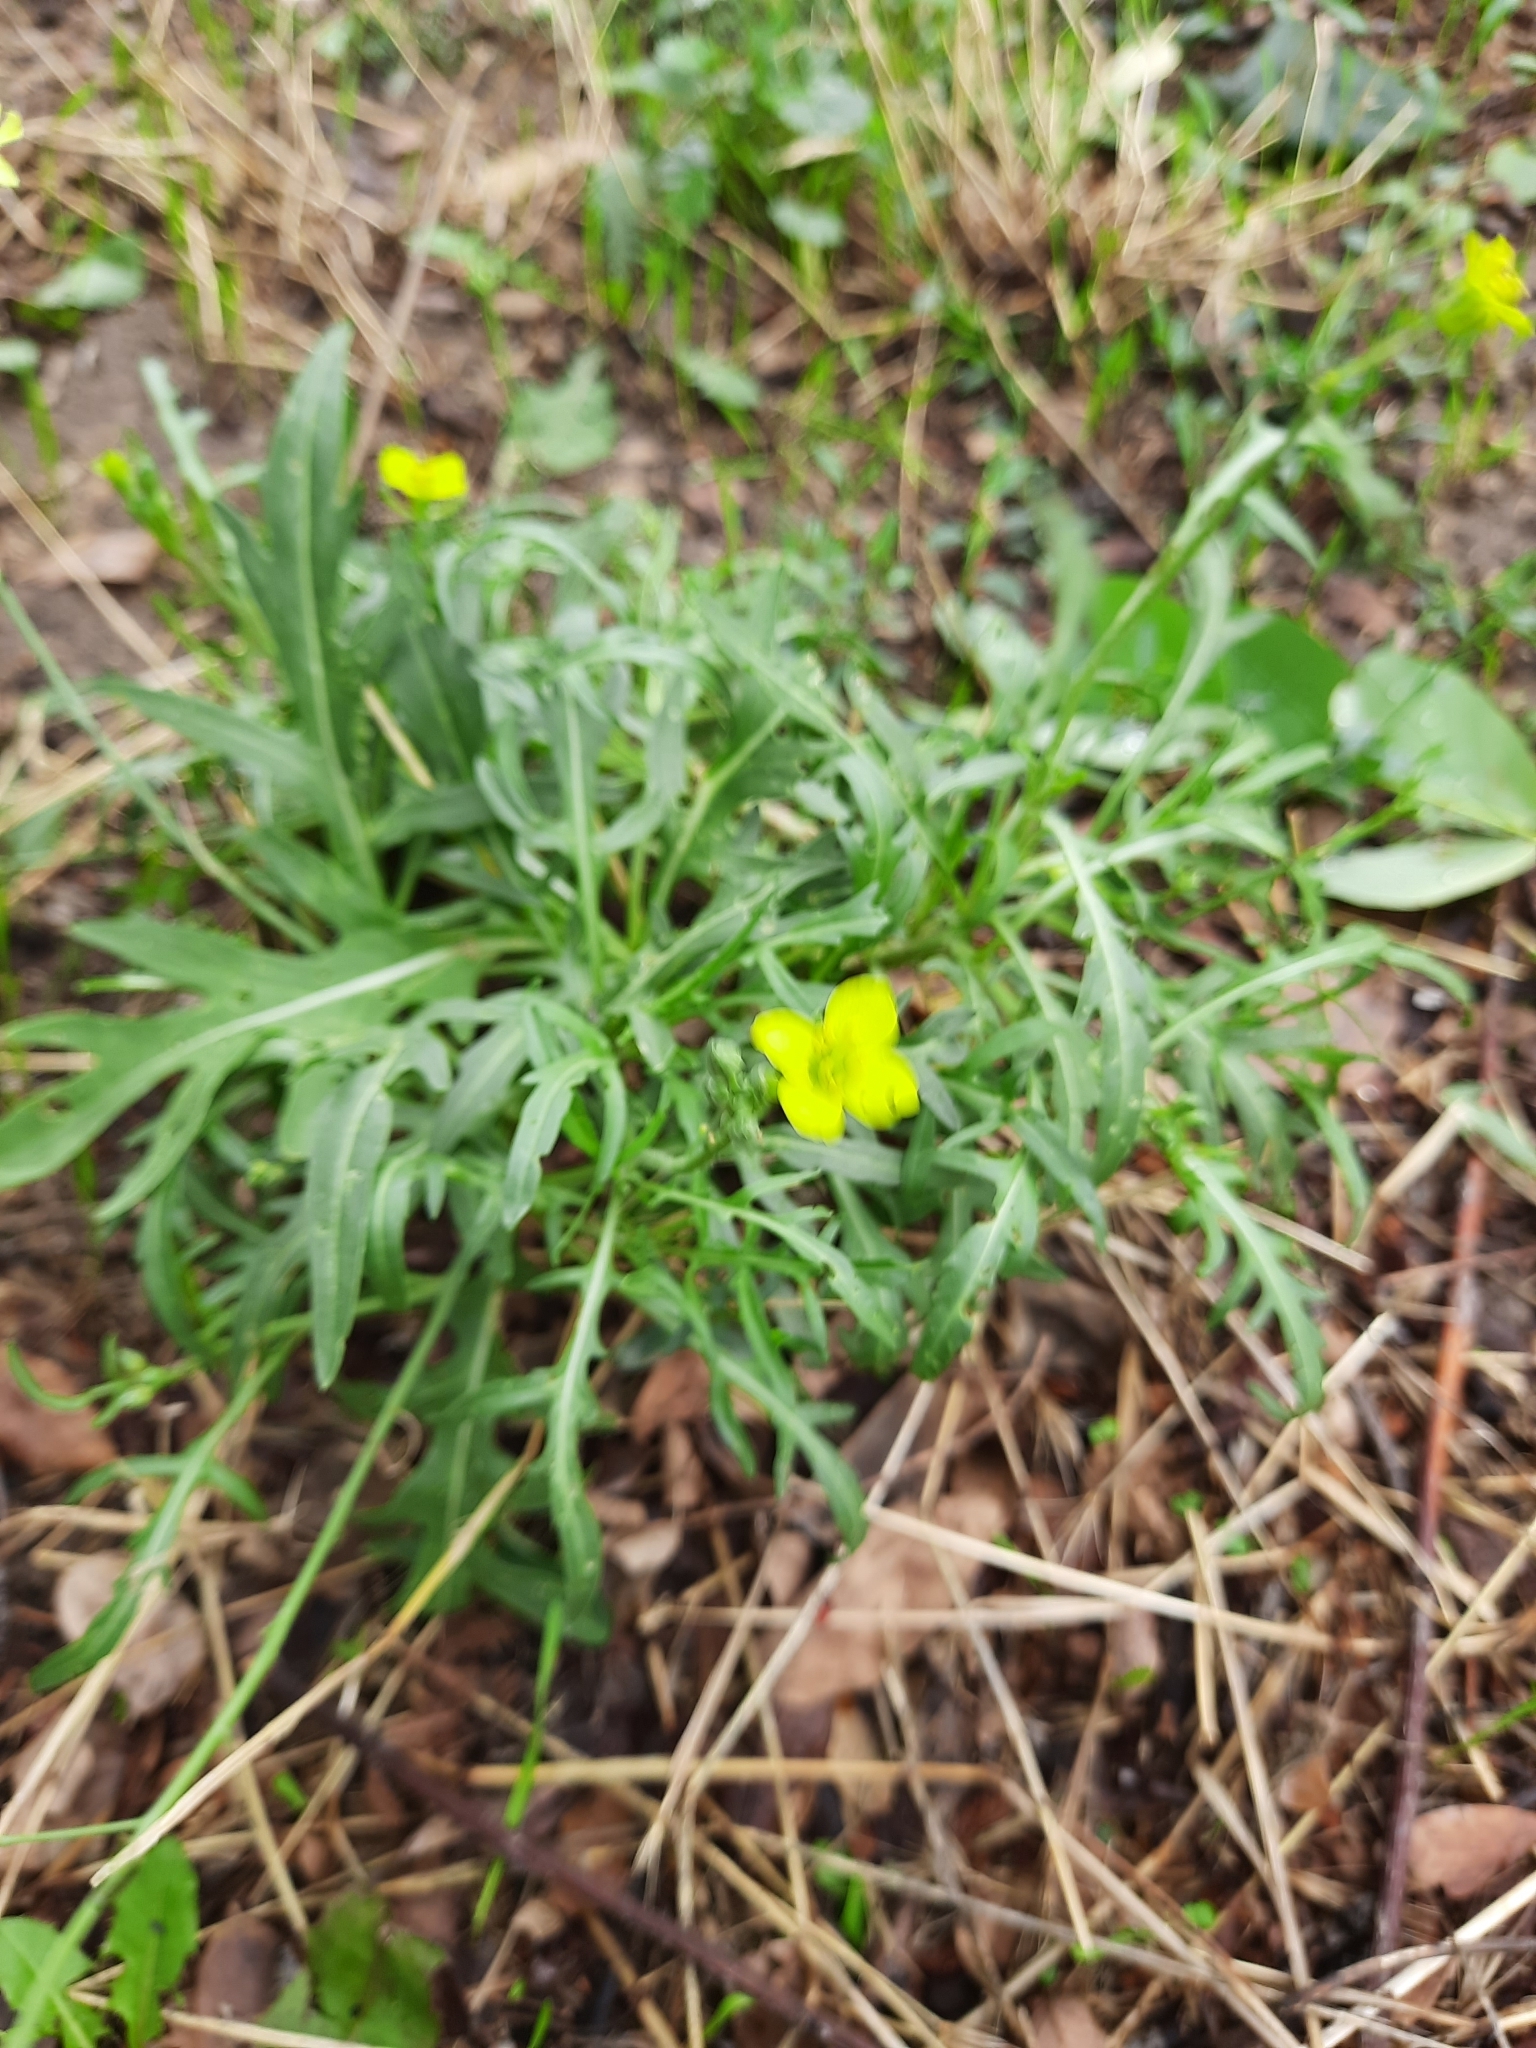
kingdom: Plantae
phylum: Tracheophyta
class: Magnoliopsida
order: Brassicales
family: Brassicaceae
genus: Diplotaxis
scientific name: Diplotaxis tenuifolia
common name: Perennial wall-rocket
